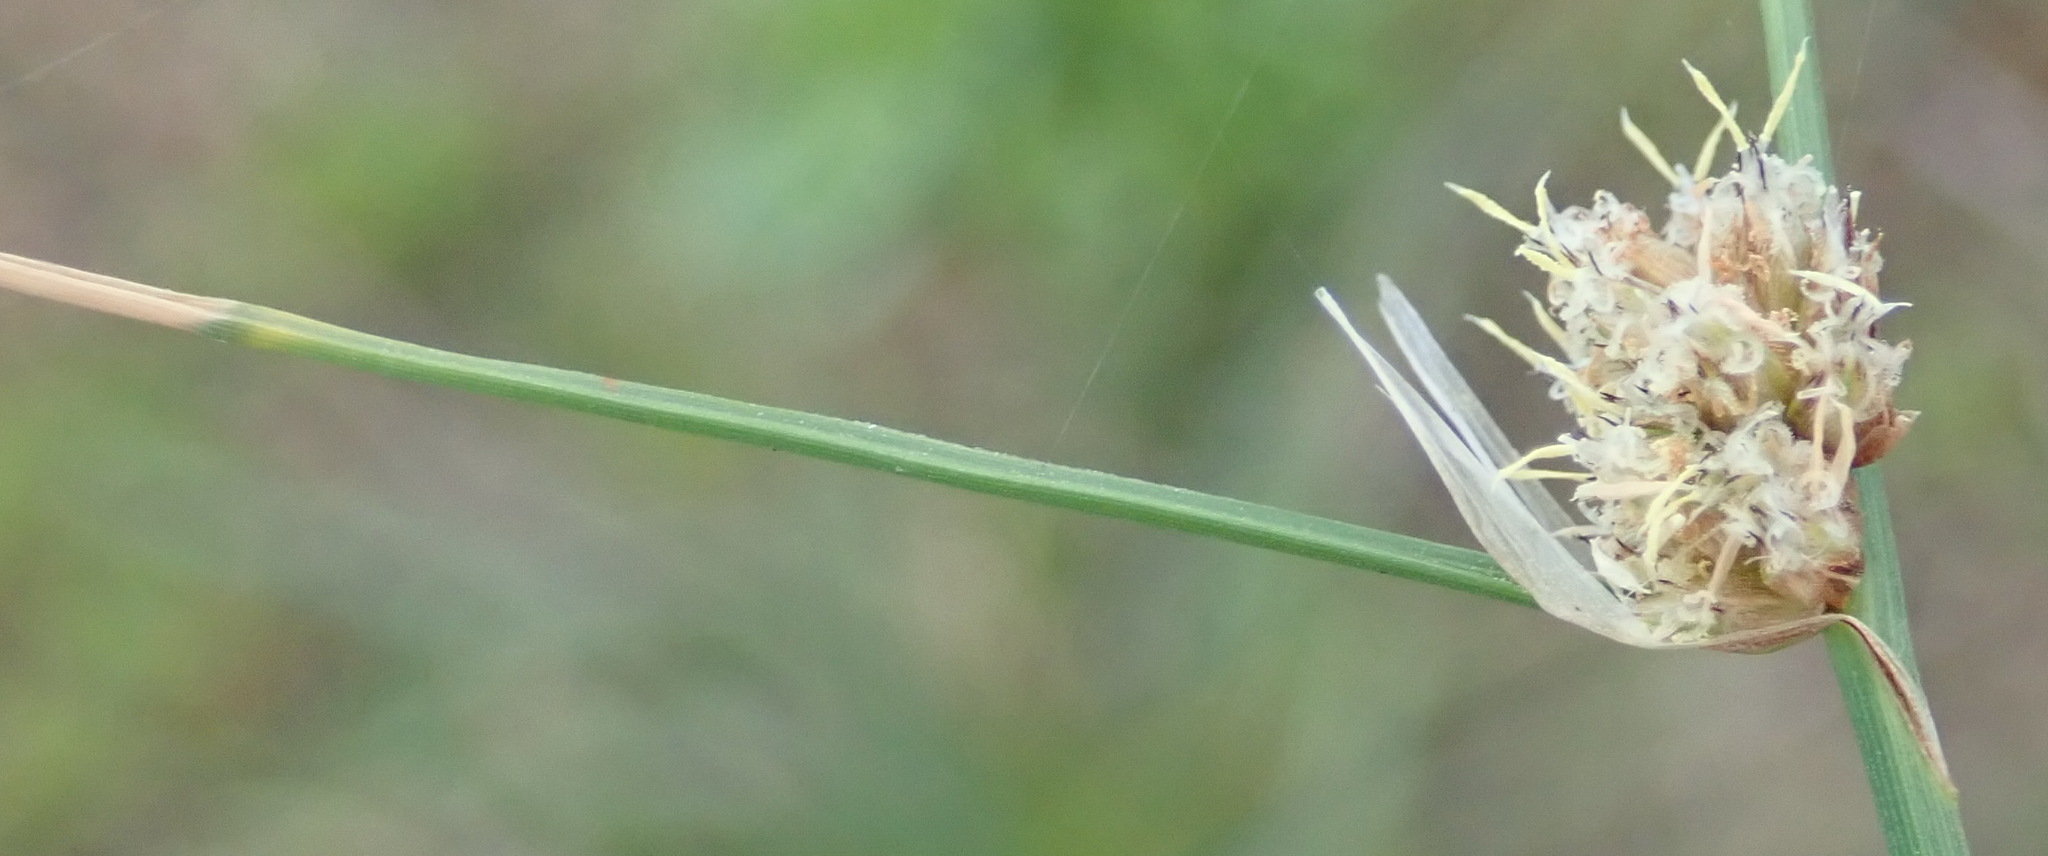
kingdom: Plantae
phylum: Tracheophyta
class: Liliopsida
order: Poales
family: Cyperaceae
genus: Ficinia
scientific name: Ficinia bulbosa
